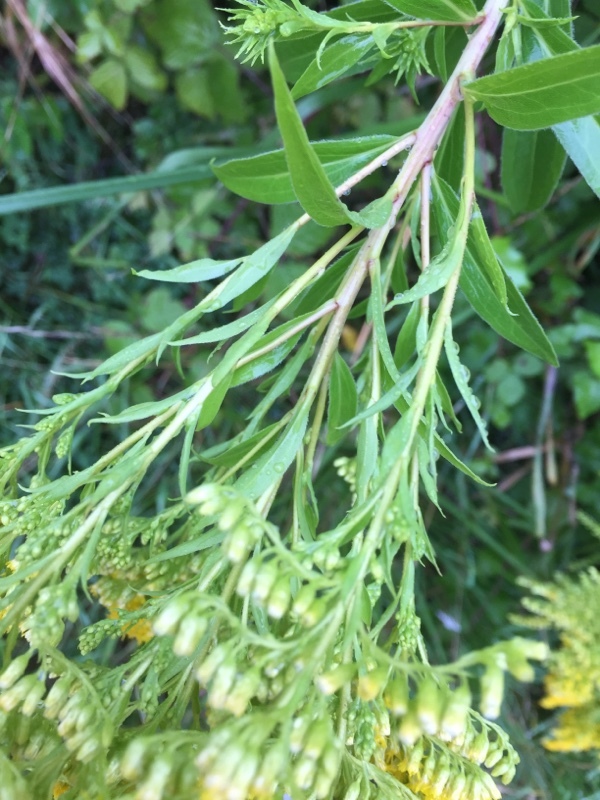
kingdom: Plantae
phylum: Tracheophyta
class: Magnoliopsida
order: Asterales
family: Asteraceae
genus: Solidago
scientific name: Solidago gigantea
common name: Giant goldenrod
